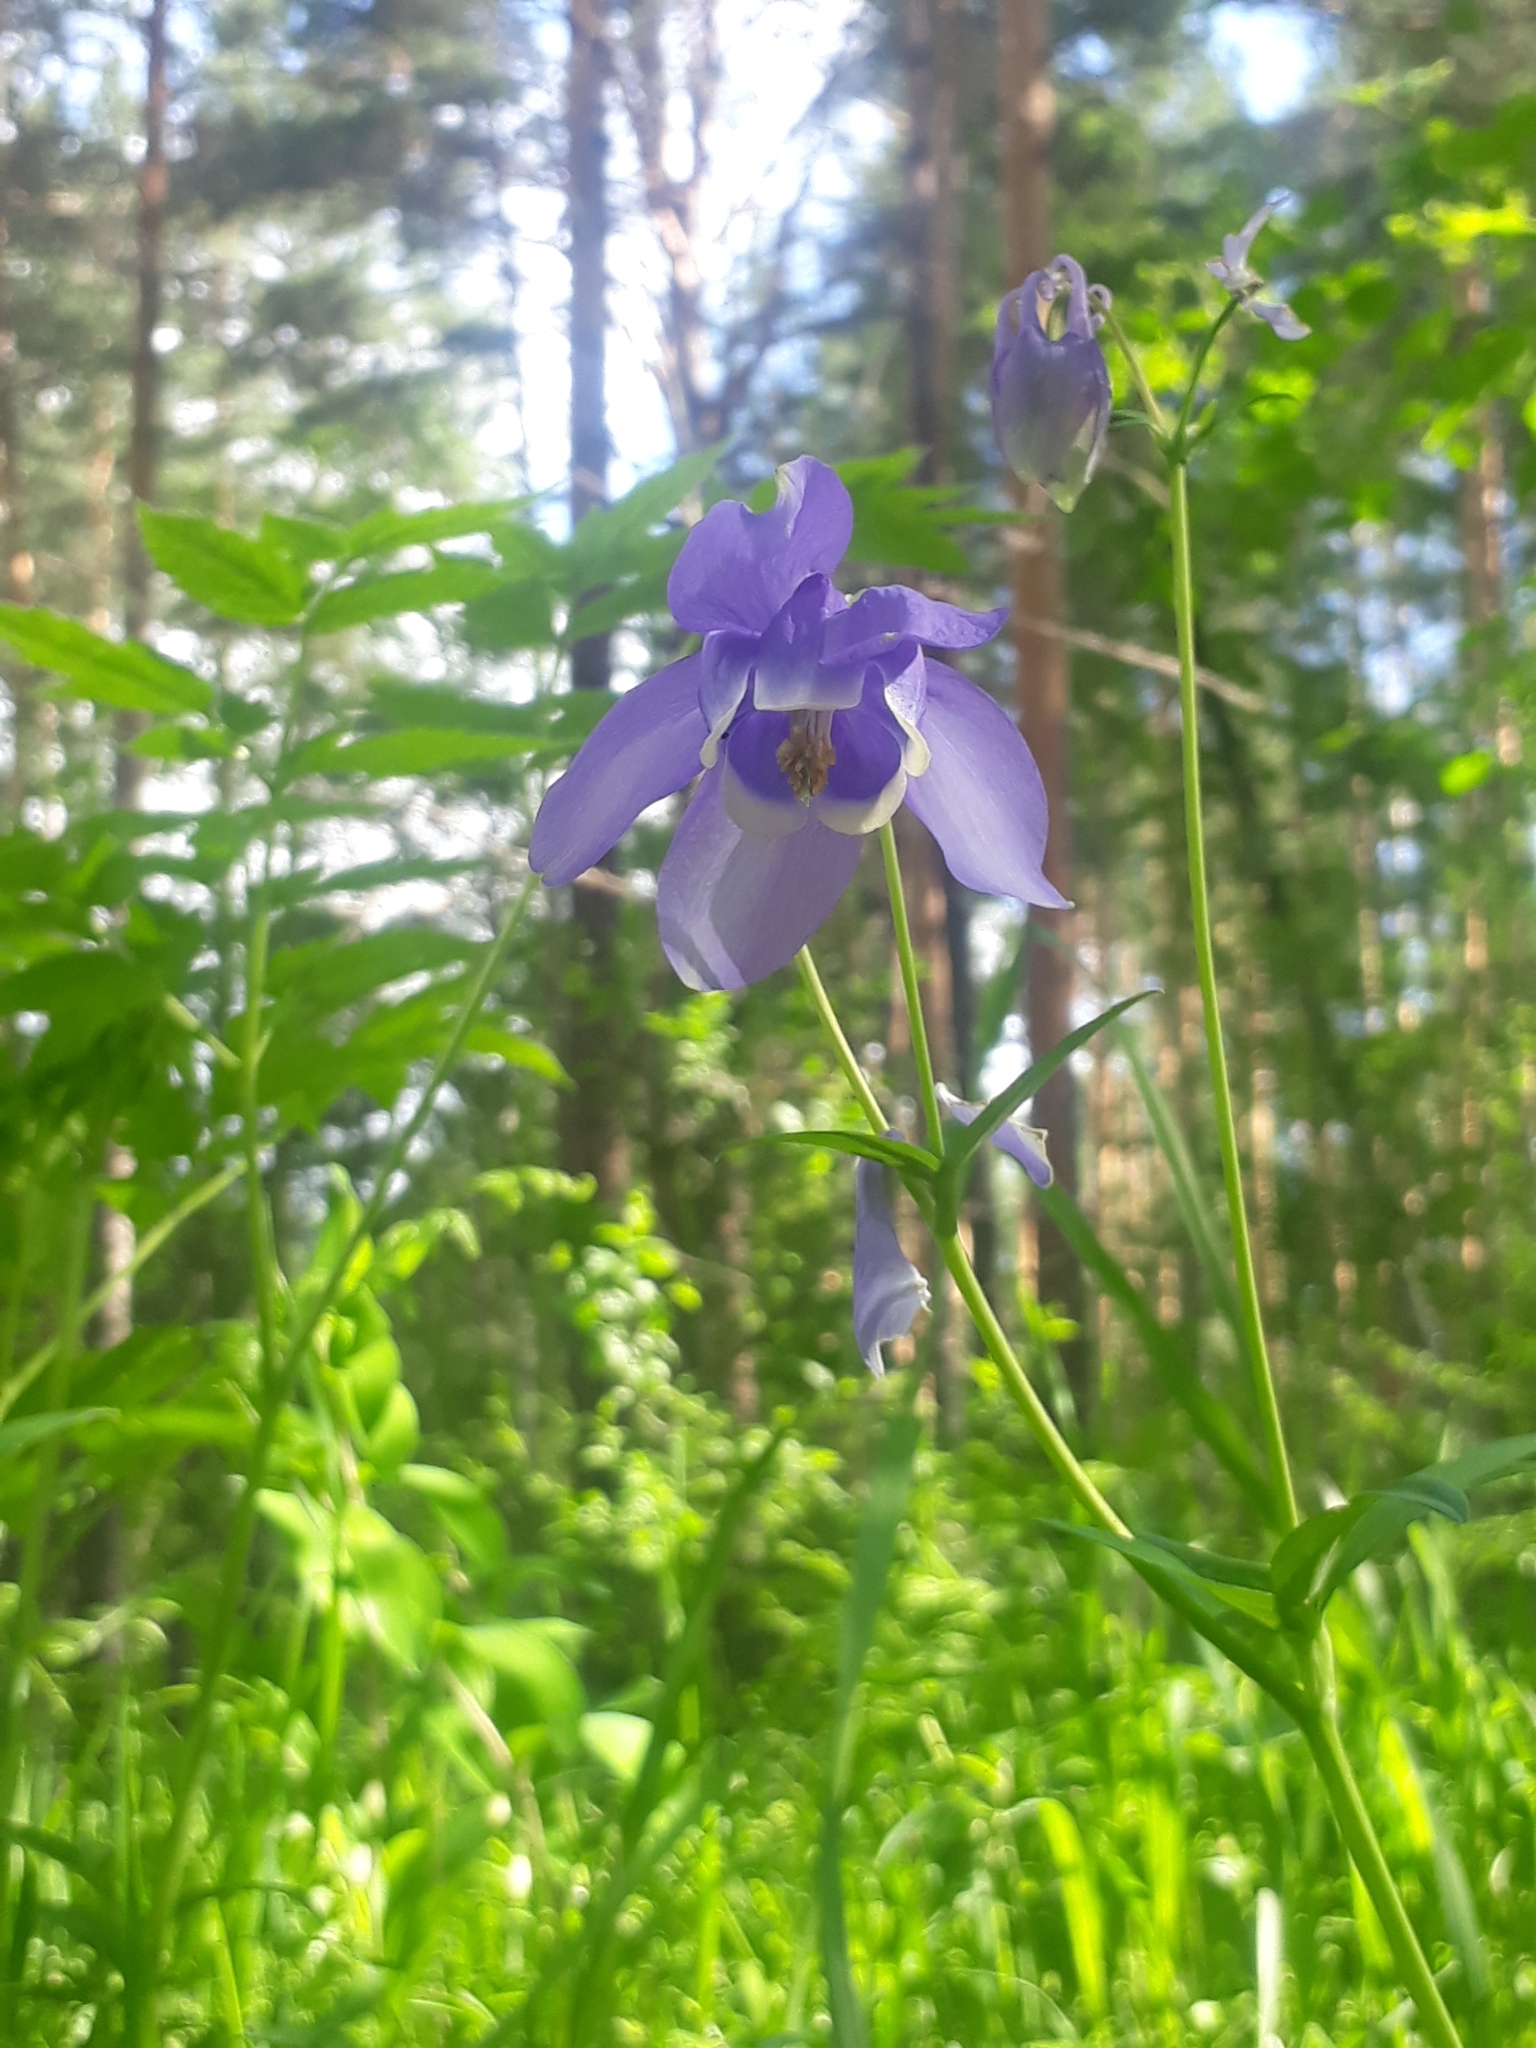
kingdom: Plantae
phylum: Tracheophyta
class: Magnoliopsida
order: Ranunculales
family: Ranunculaceae
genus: Aquilegia
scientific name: Aquilegia sibirica
